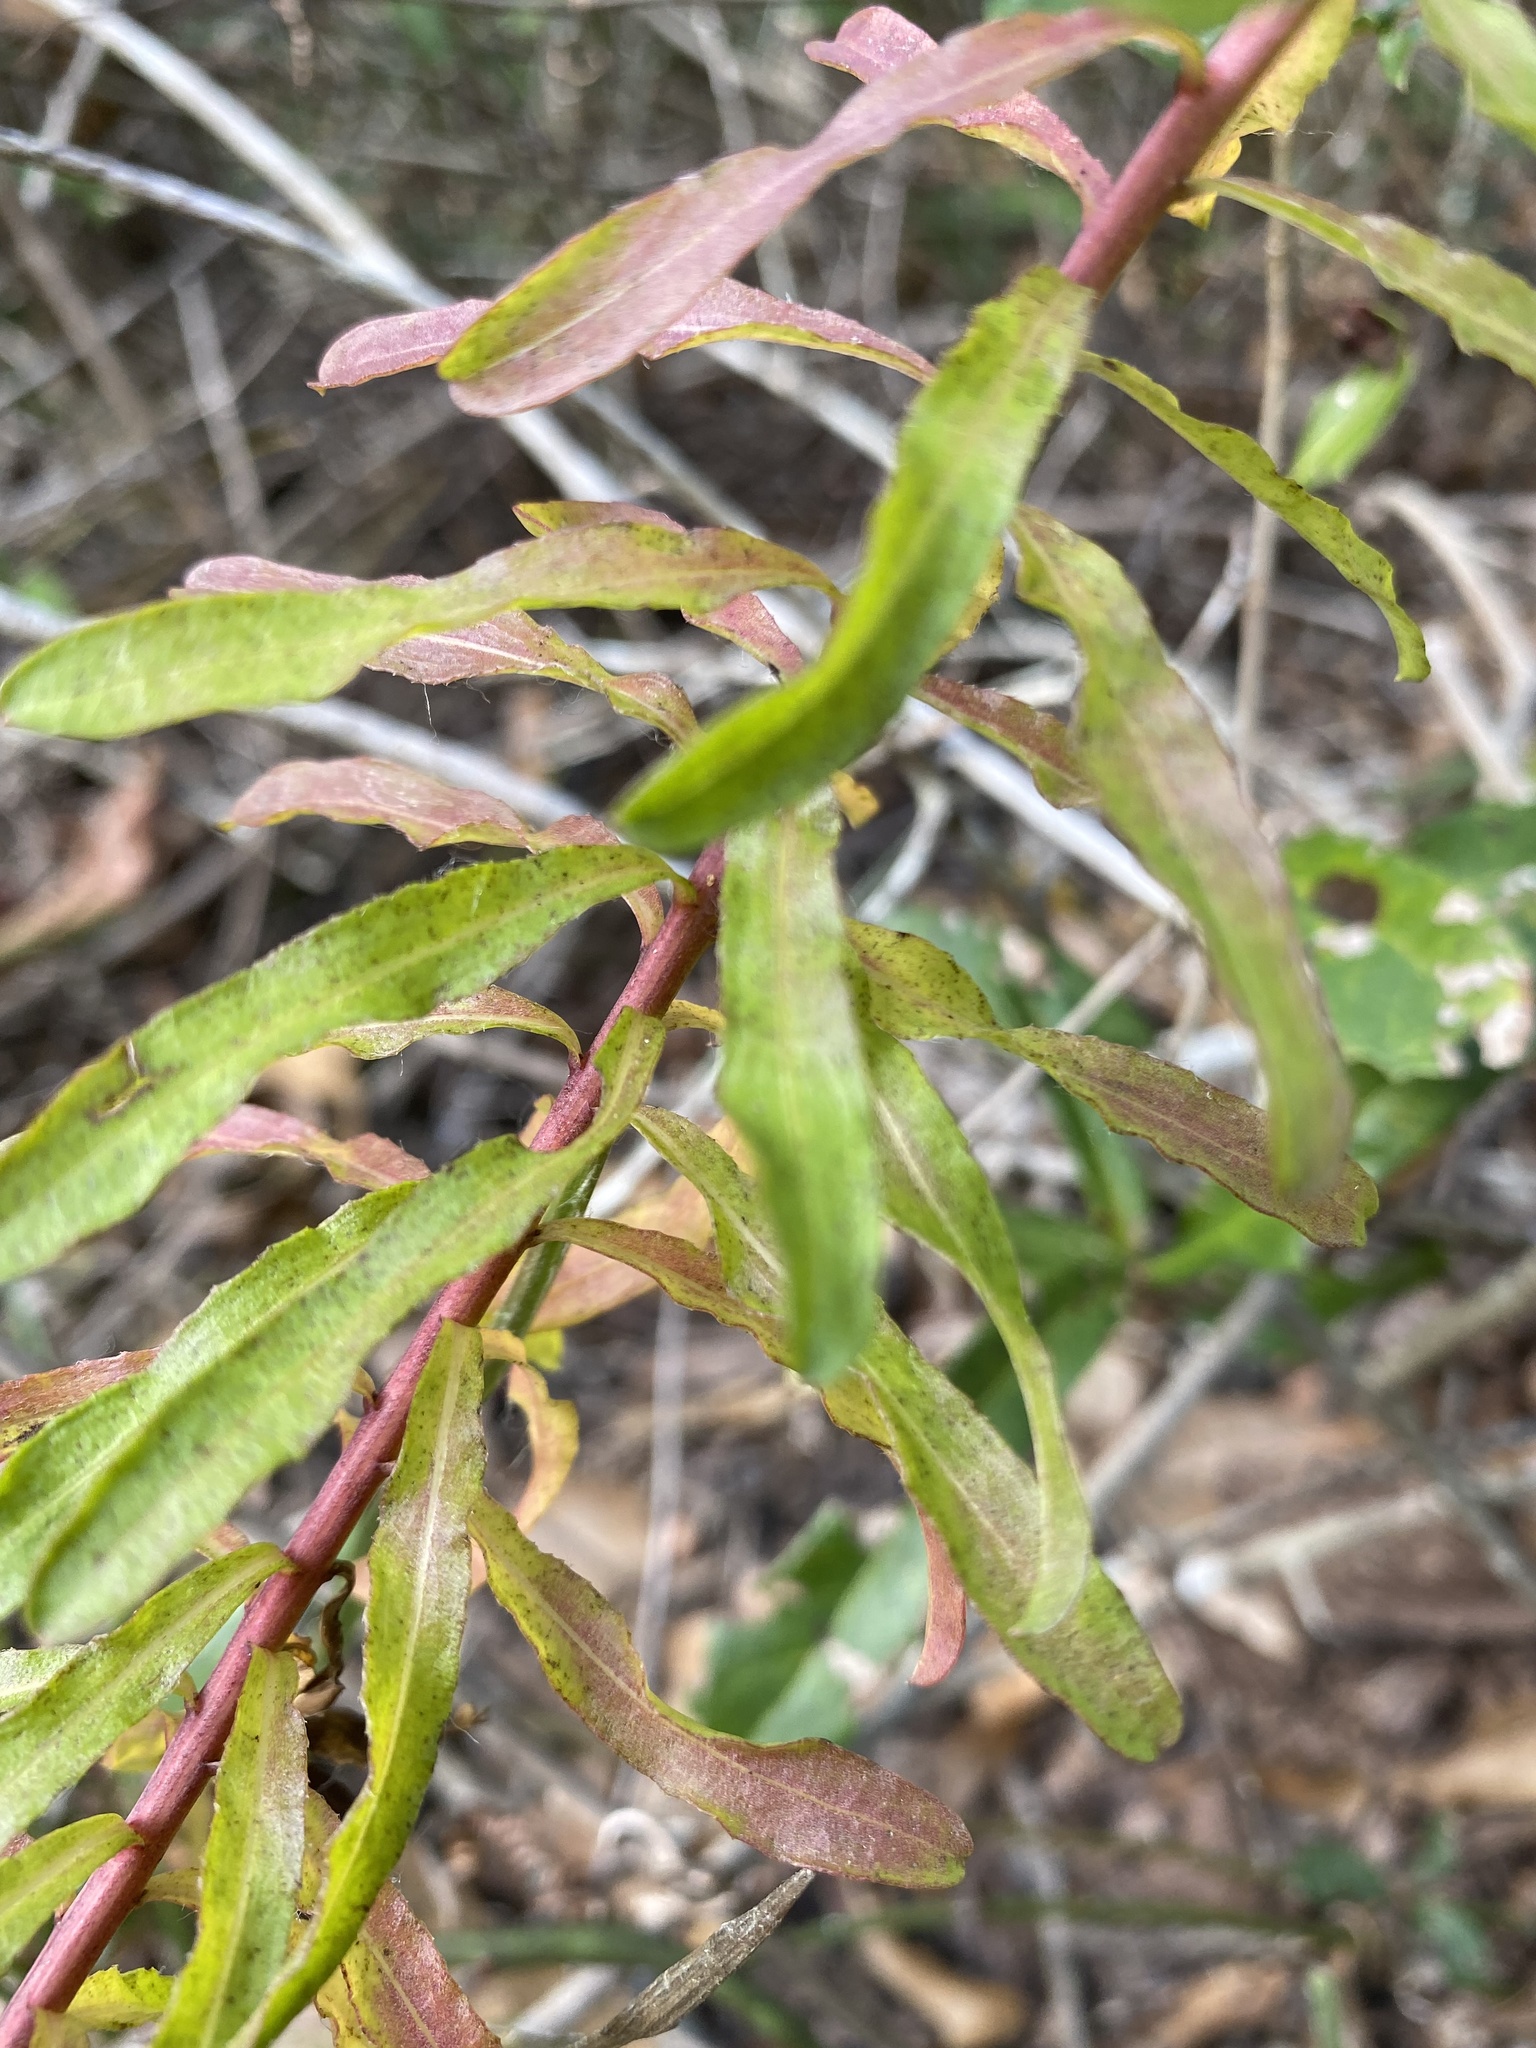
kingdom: Plantae
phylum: Tracheophyta
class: Magnoliopsida
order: Asterales
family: Asteraceae
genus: Chrysopsis
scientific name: Chrysopsis gossypina
